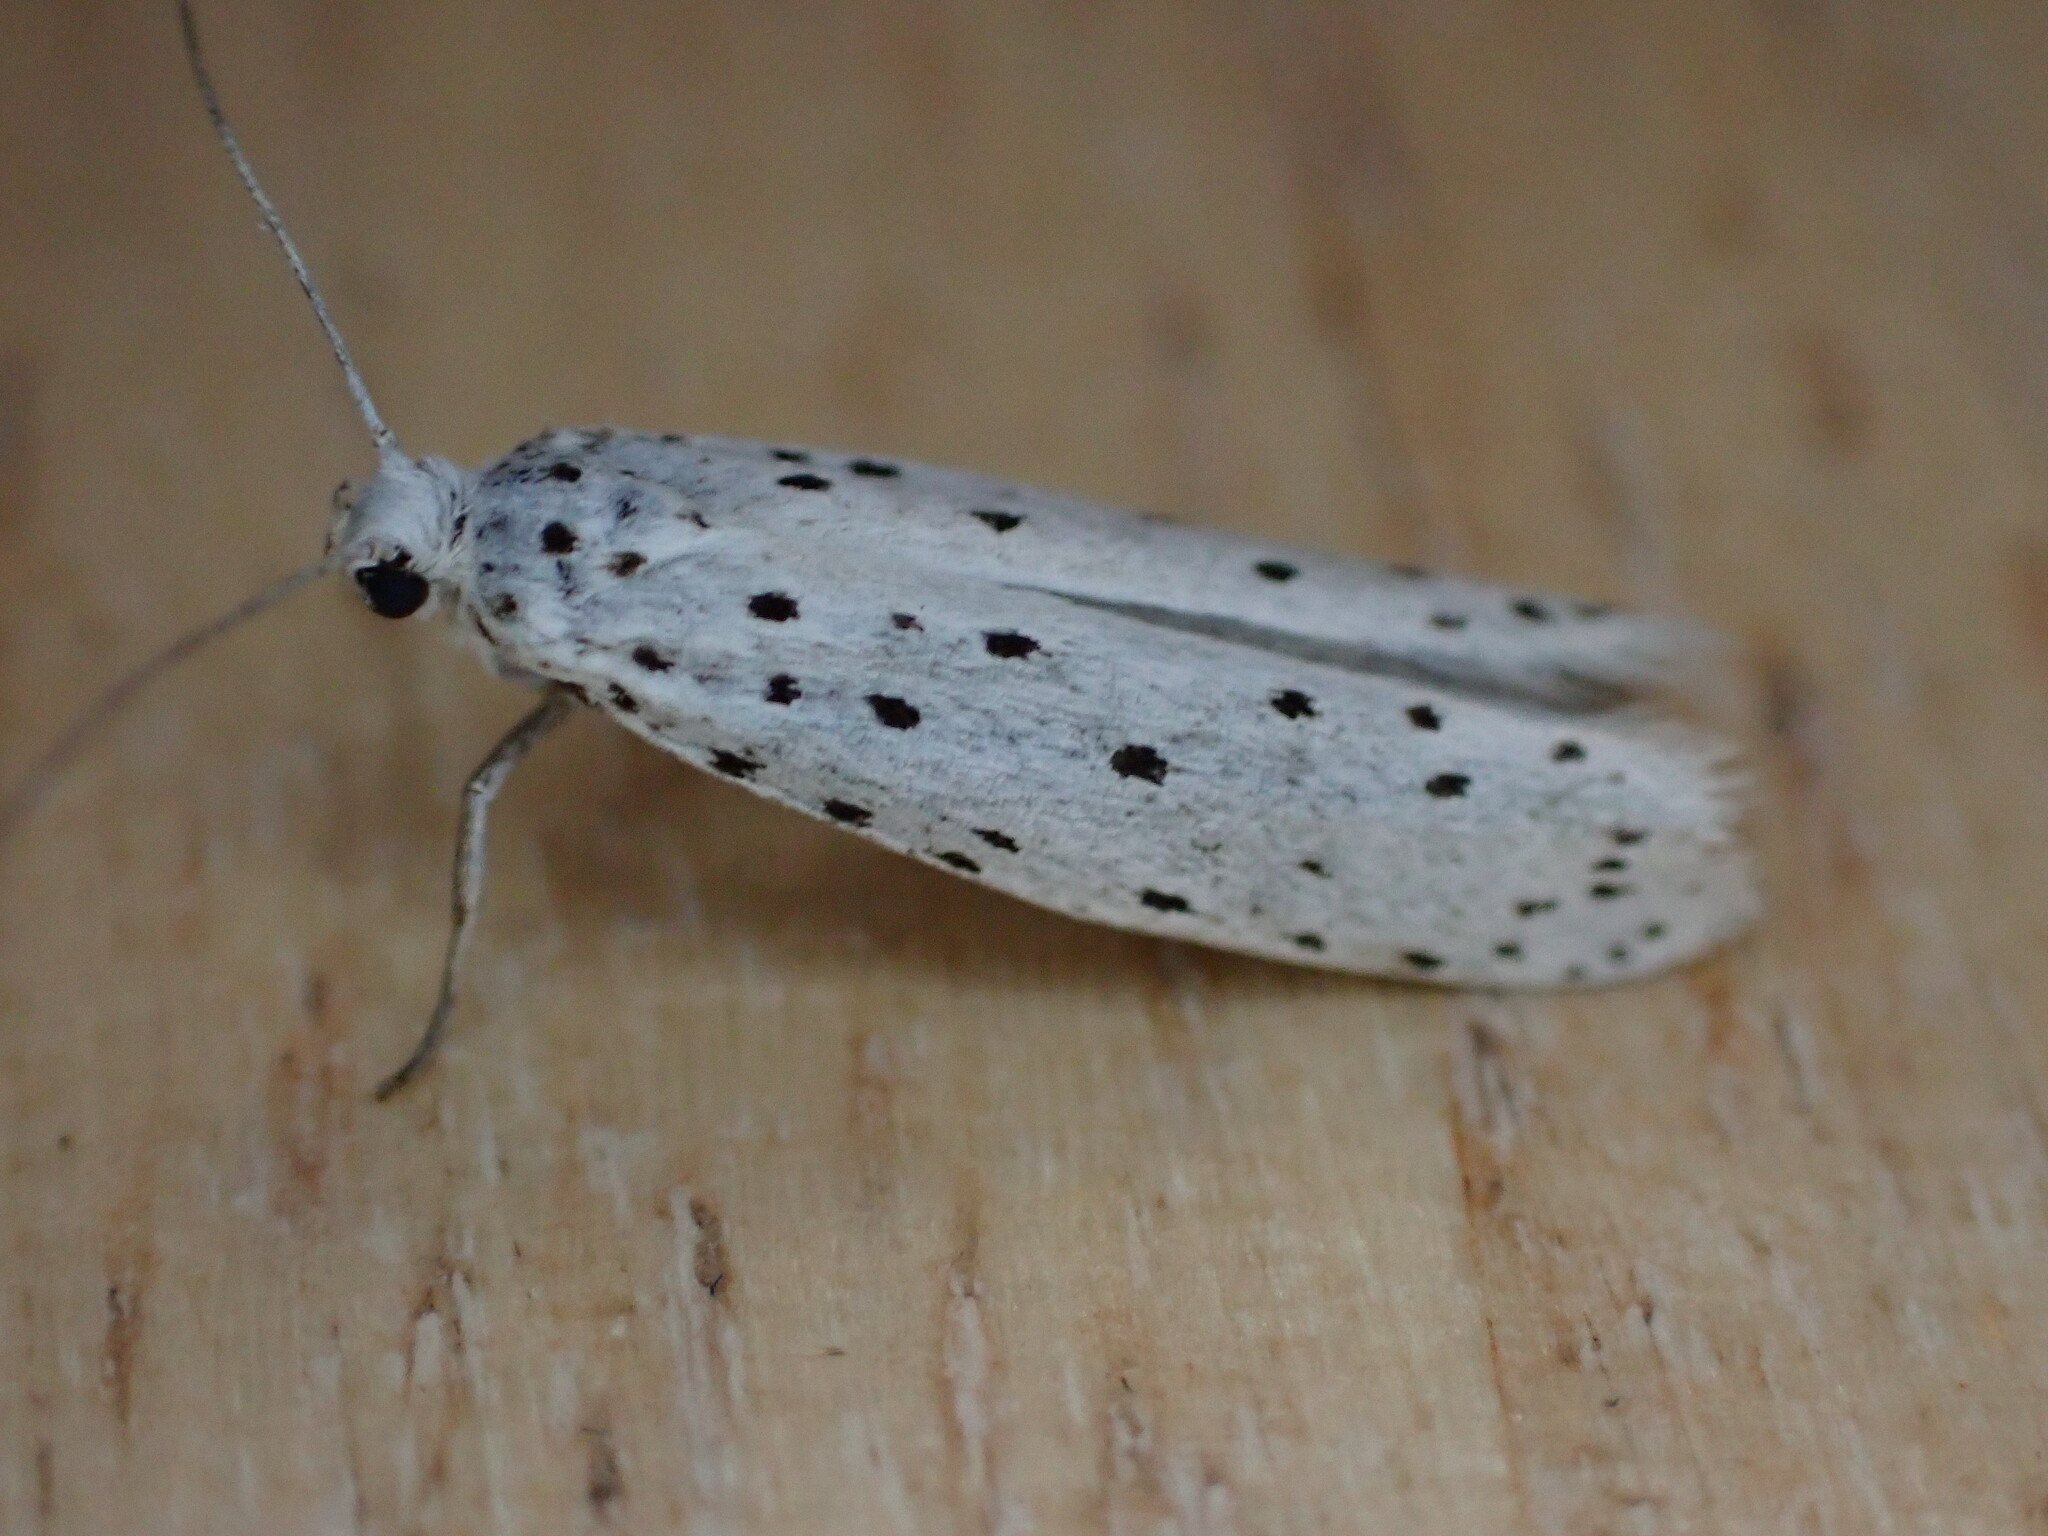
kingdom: Animalia
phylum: Arthropoda
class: Insecta
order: Lepidoptera
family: Yponomeutidae
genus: Yponomeuta
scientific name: Yponomeuta
